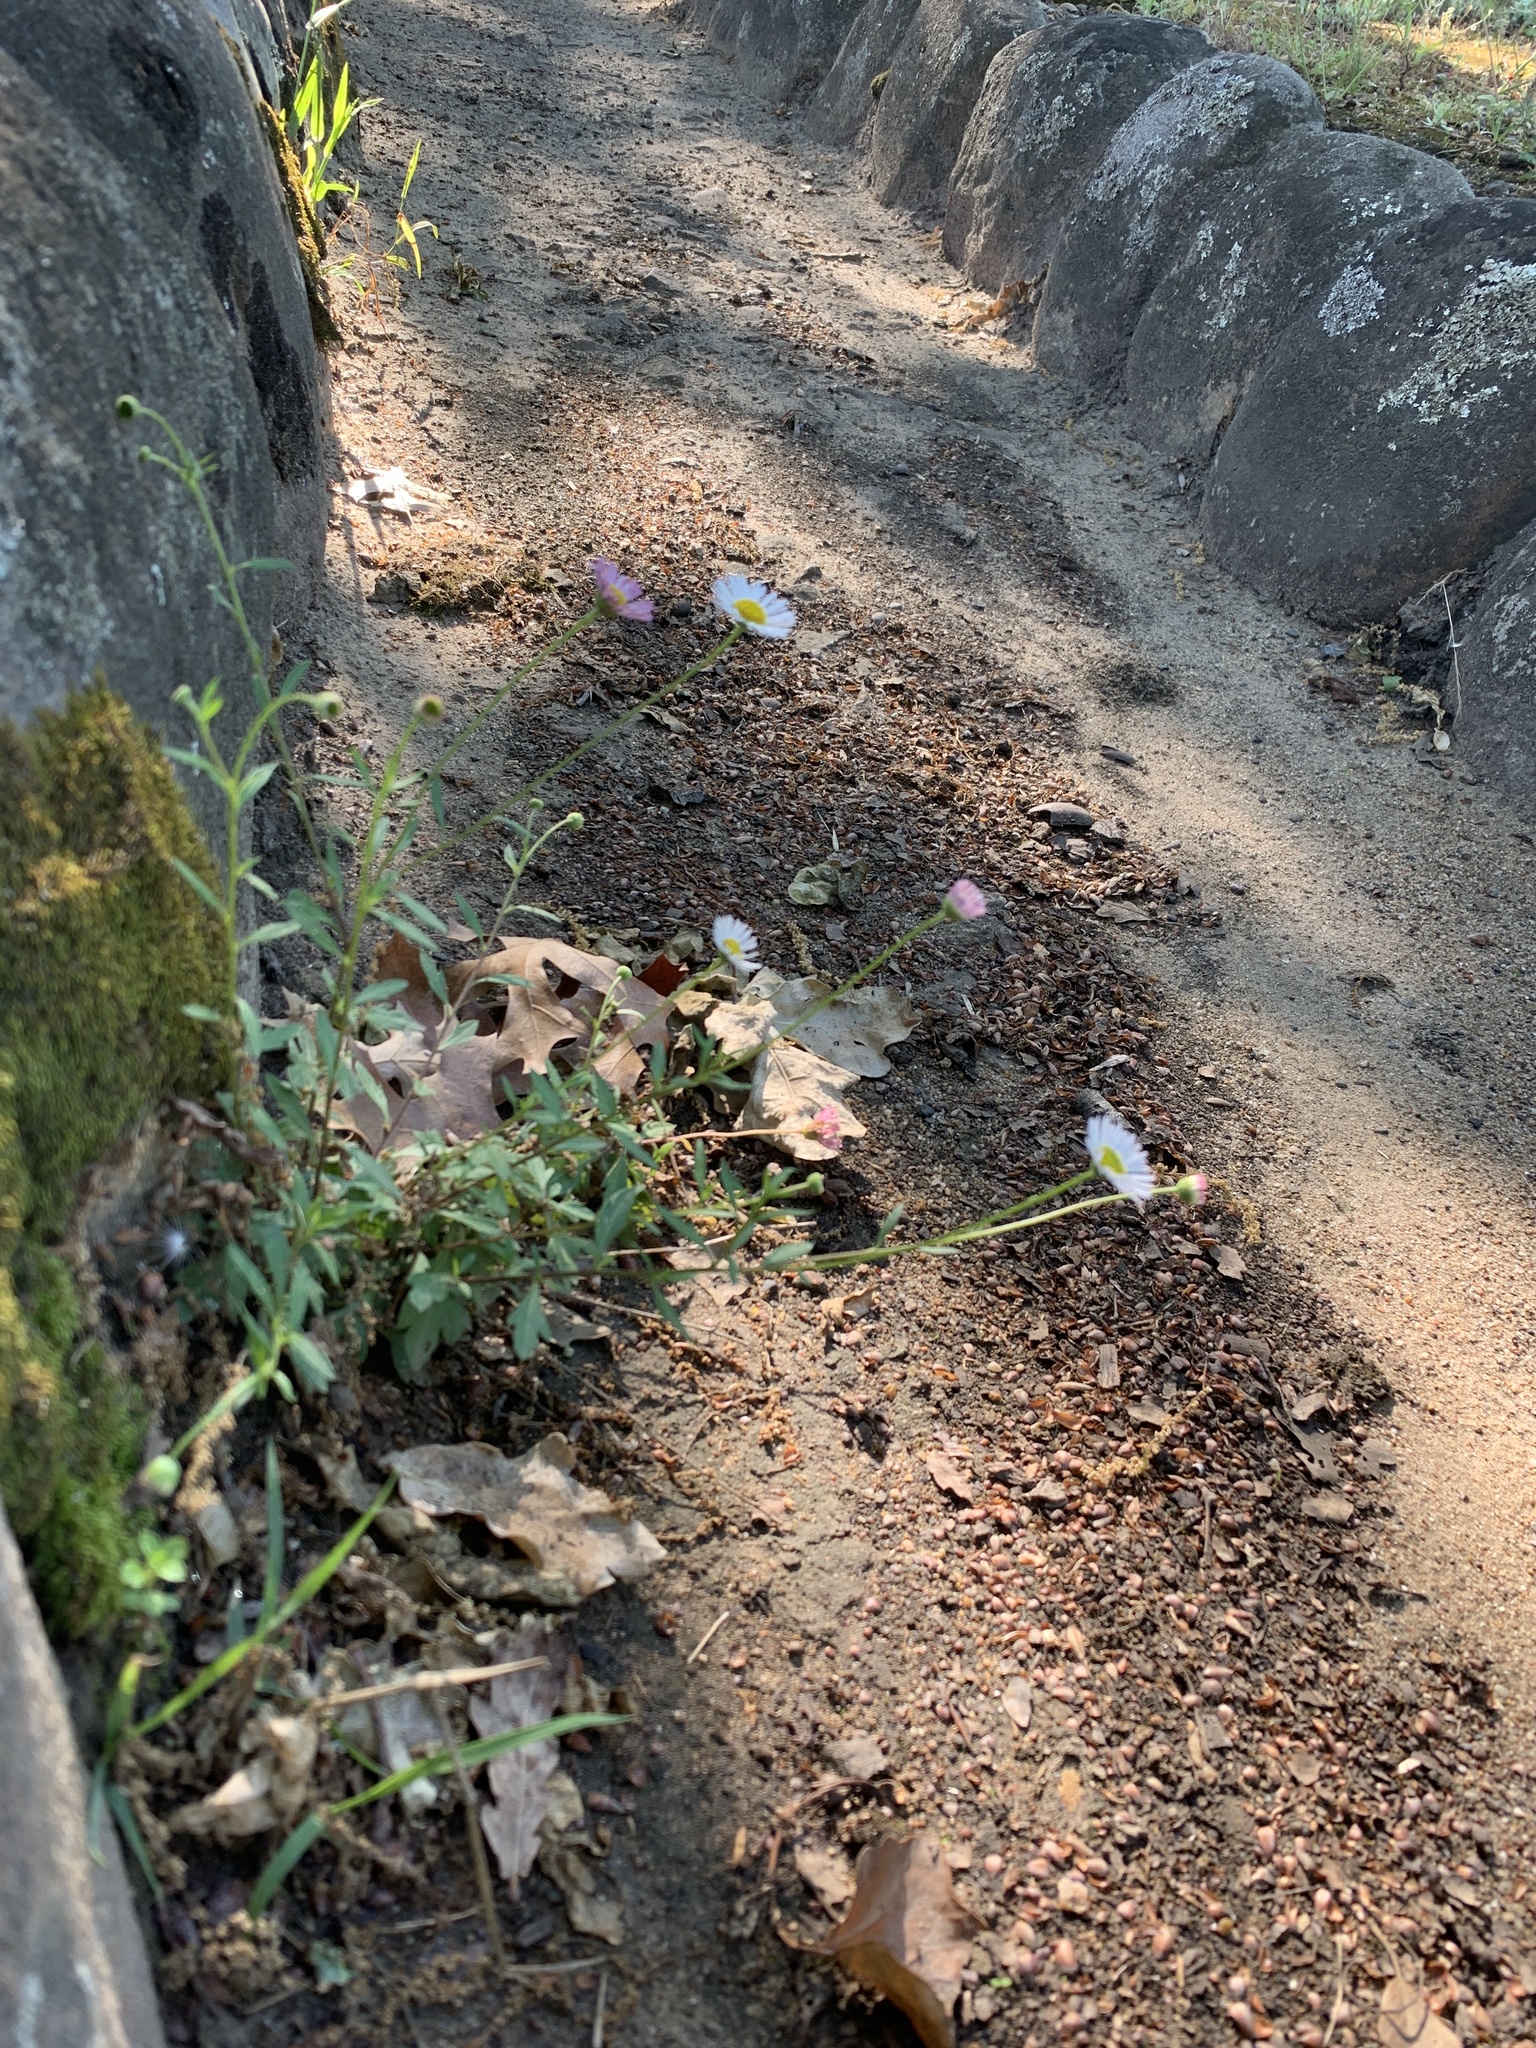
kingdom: Plantae
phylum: Tracheophyta
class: Magnoliopsida
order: Asterales
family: Asteraceae
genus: Erigeron
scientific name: Erigeron karvinskianus
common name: Mexican fleabane
